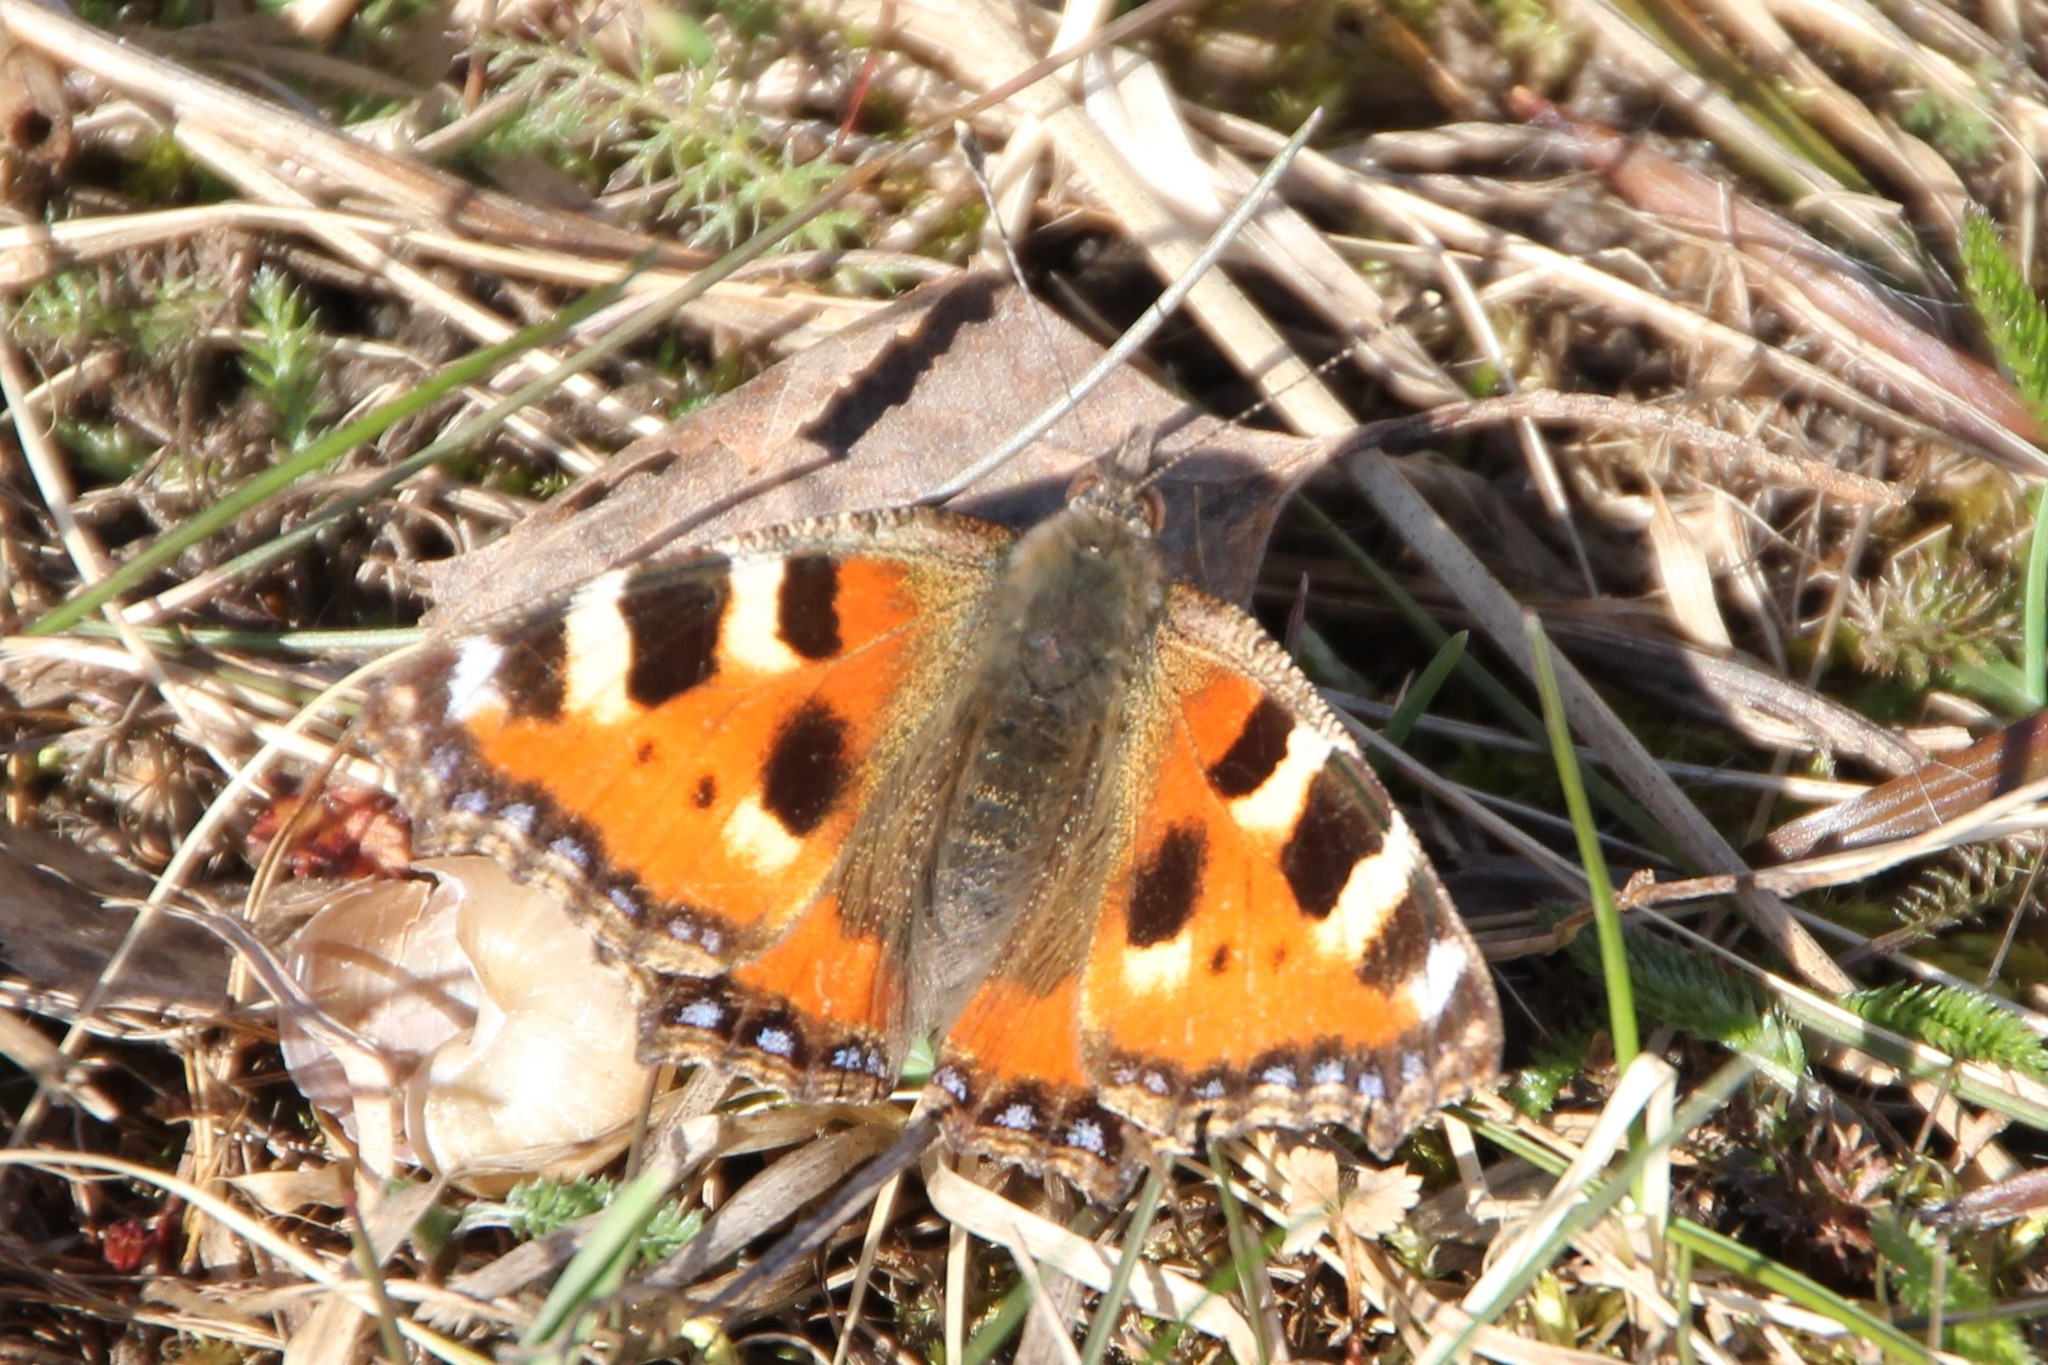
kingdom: Animalia
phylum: Arthropoda
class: Insecta
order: Lepidoptera
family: Nymphalidae
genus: Aglais
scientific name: Aglais urticae
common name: Small tortoiseshell
